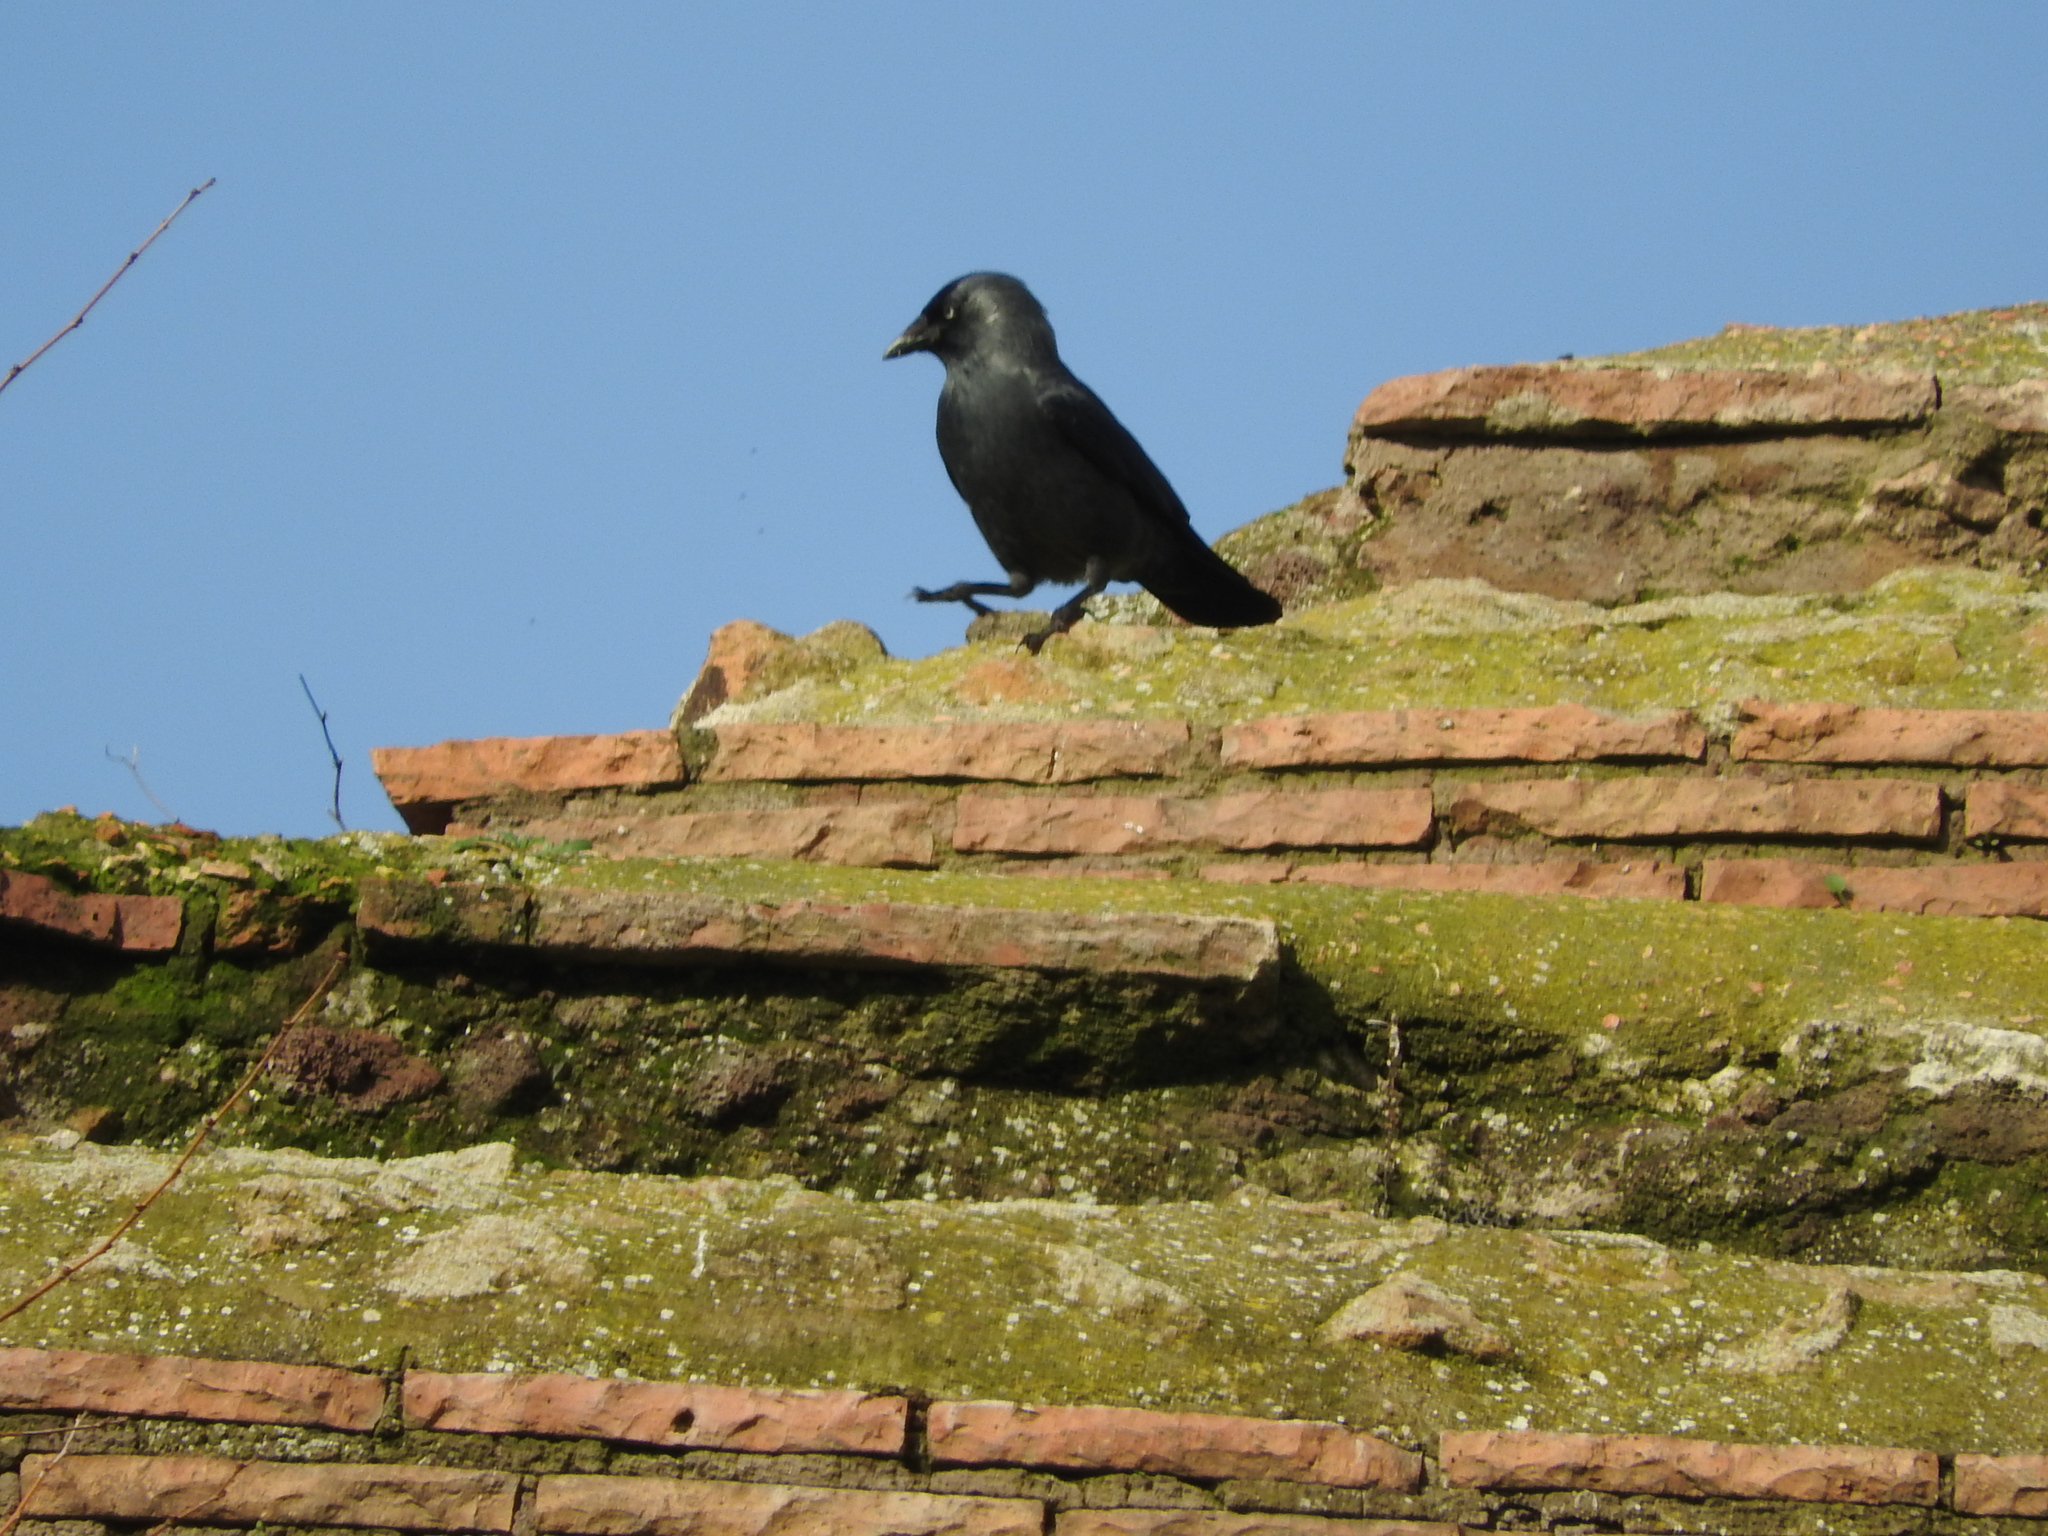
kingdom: Animalia
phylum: Chordata
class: Aves
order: Passeriformes
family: Corvidae
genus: Coloeus
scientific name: Coloeus monedula
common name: Western jackdaw
